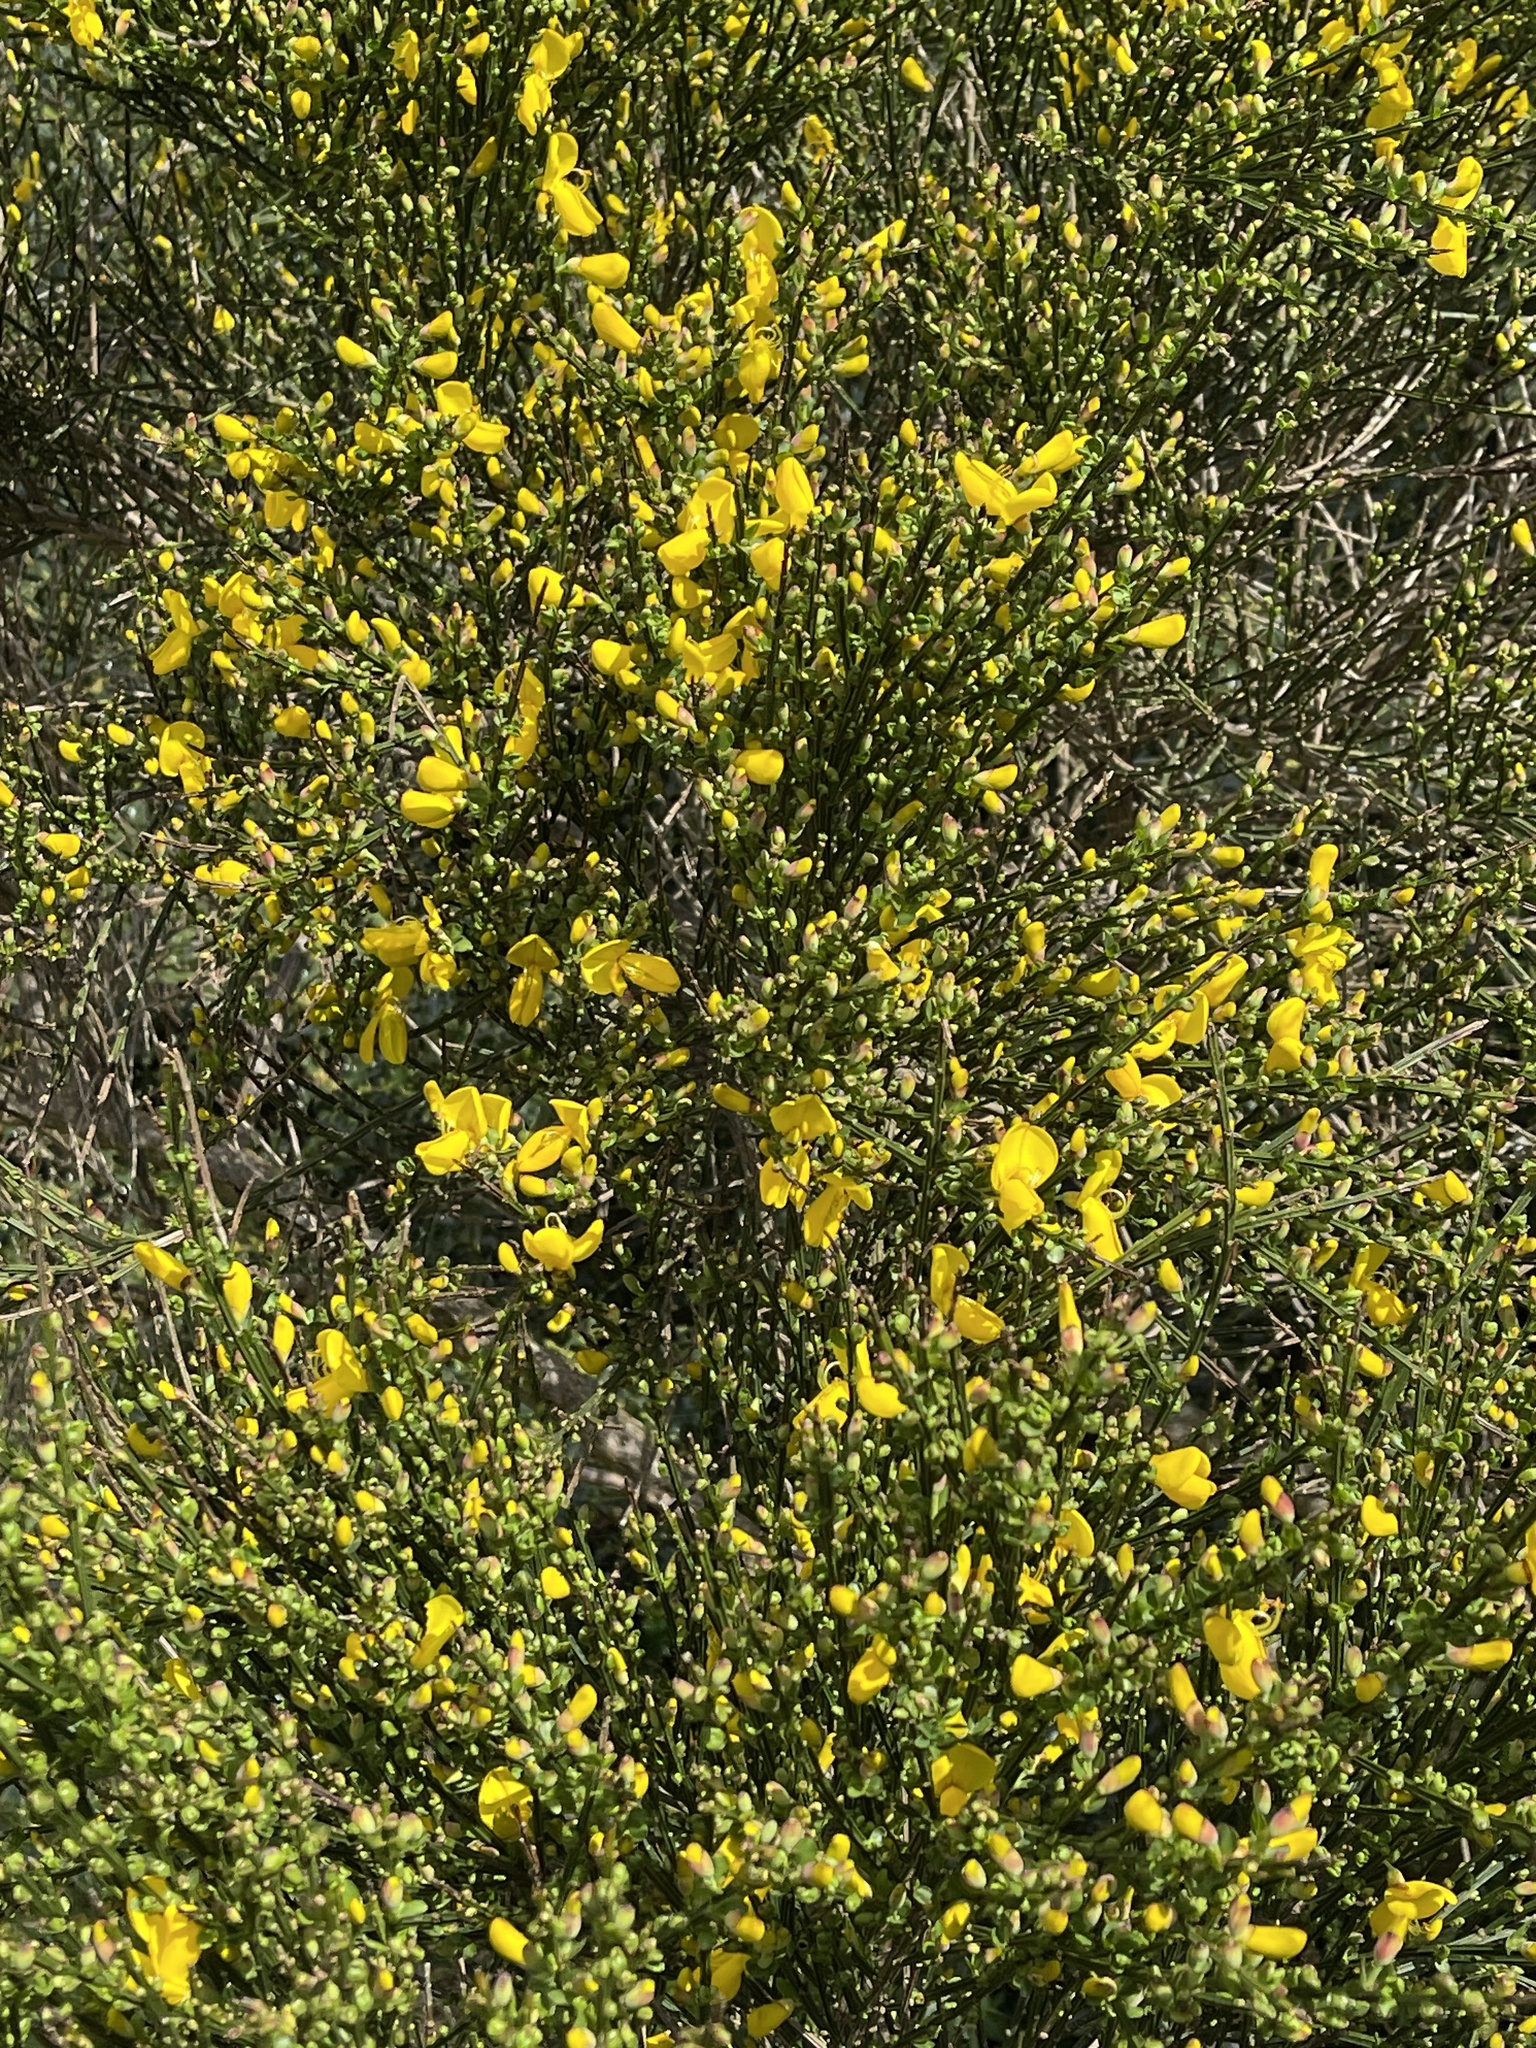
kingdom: Plantae
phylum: Tracheophyta
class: Magnoliopsida
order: Fabales
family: Fabaceae
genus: Cytisus
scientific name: Cytisus scoparius
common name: Scotch broom
